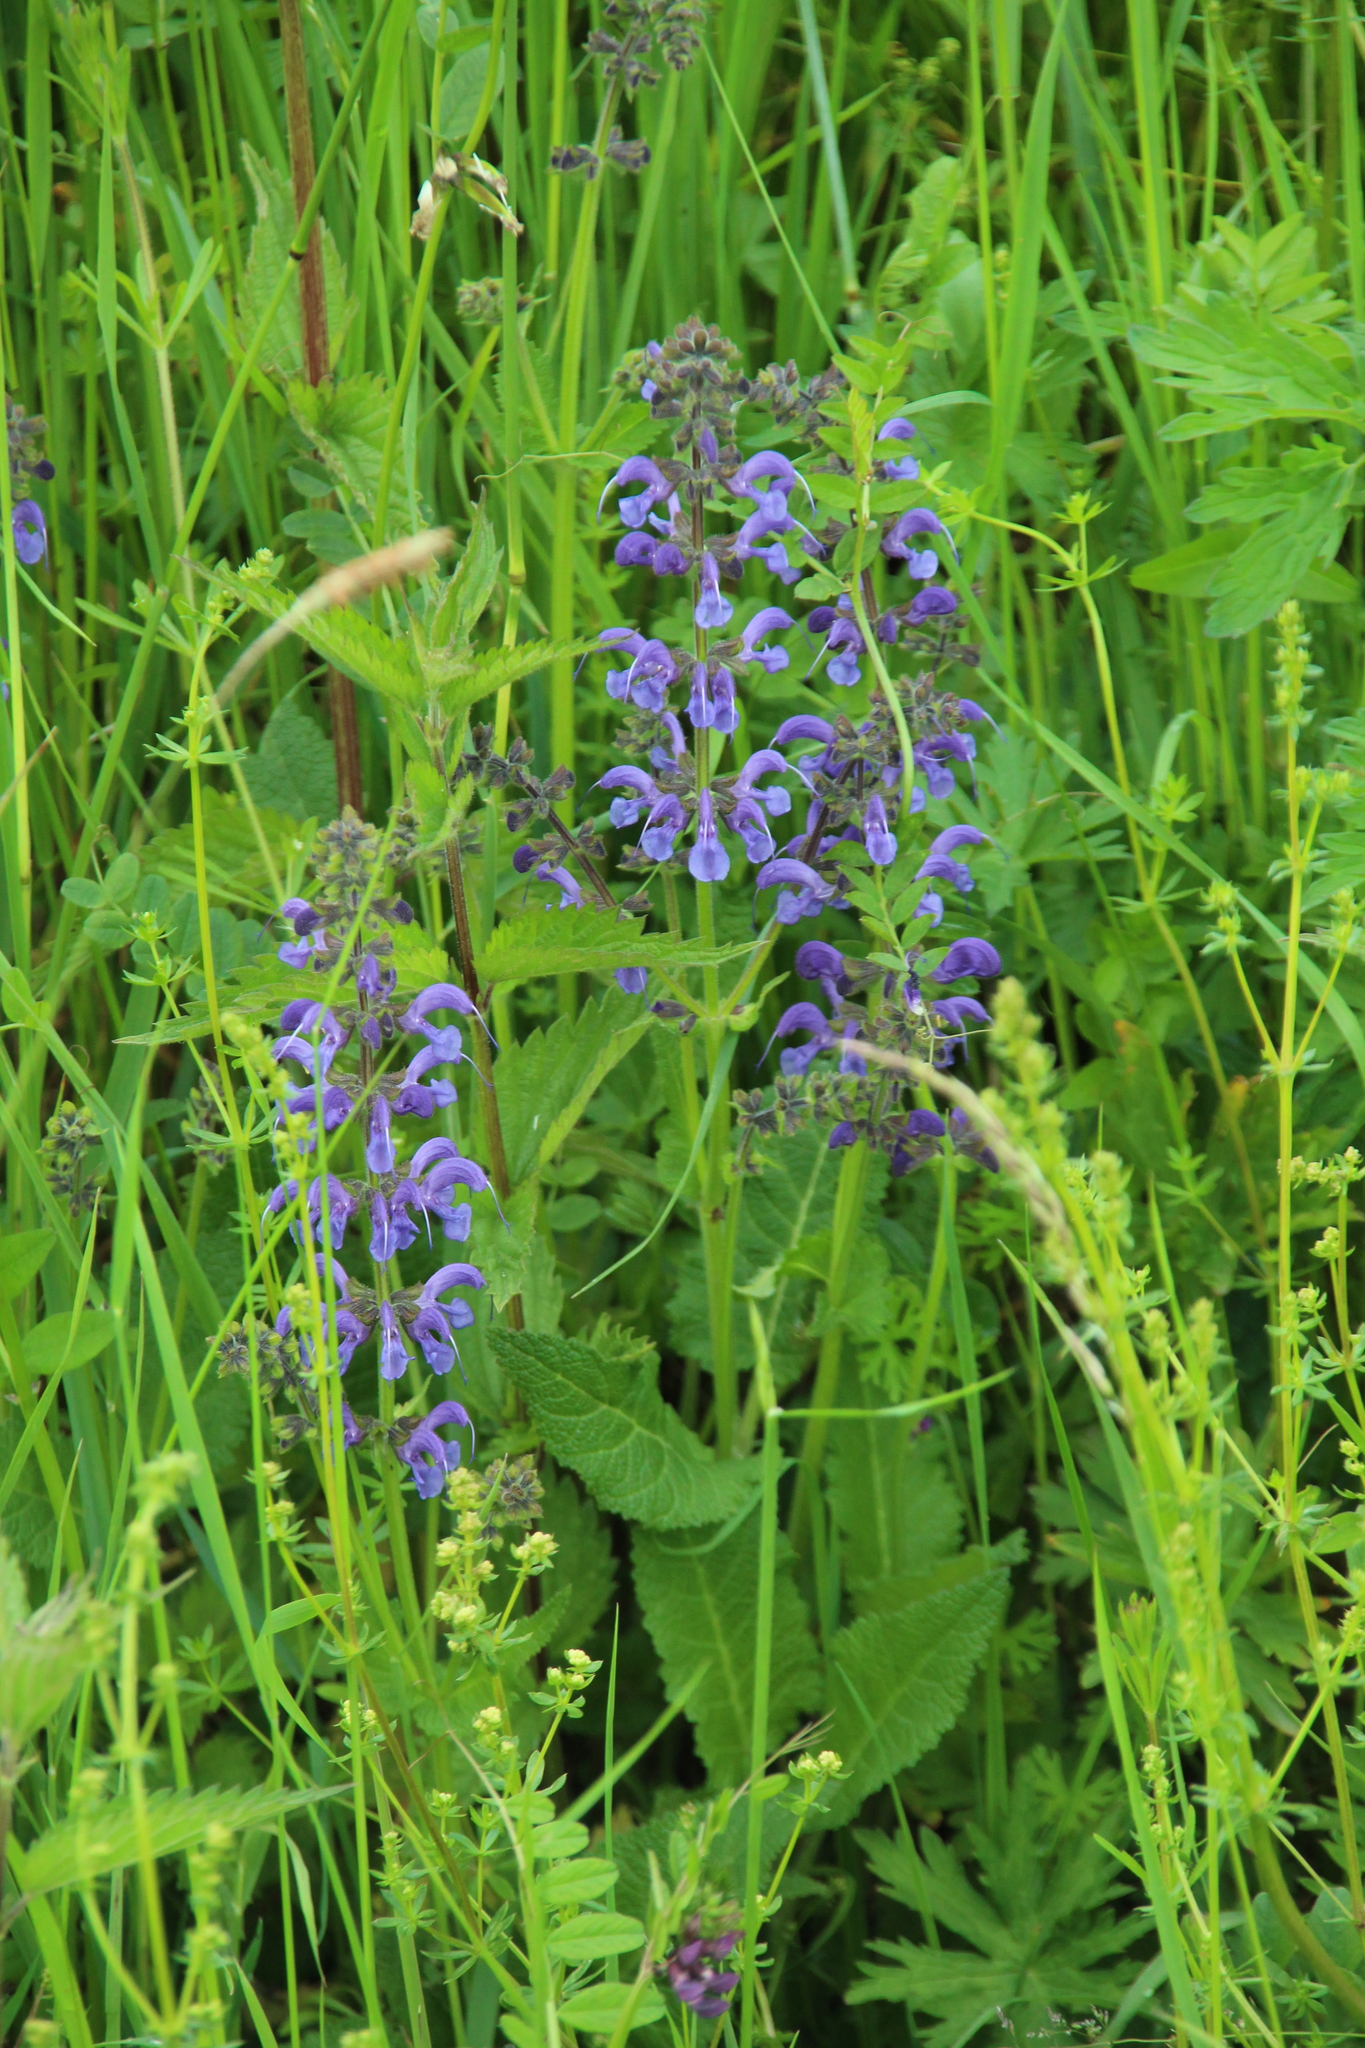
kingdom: Plantae
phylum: Tracheophyta
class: Magnoliopsida
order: Lamiales
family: Lamiaceae
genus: Salvia
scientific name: Salvia pratensis
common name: Meadow sage
